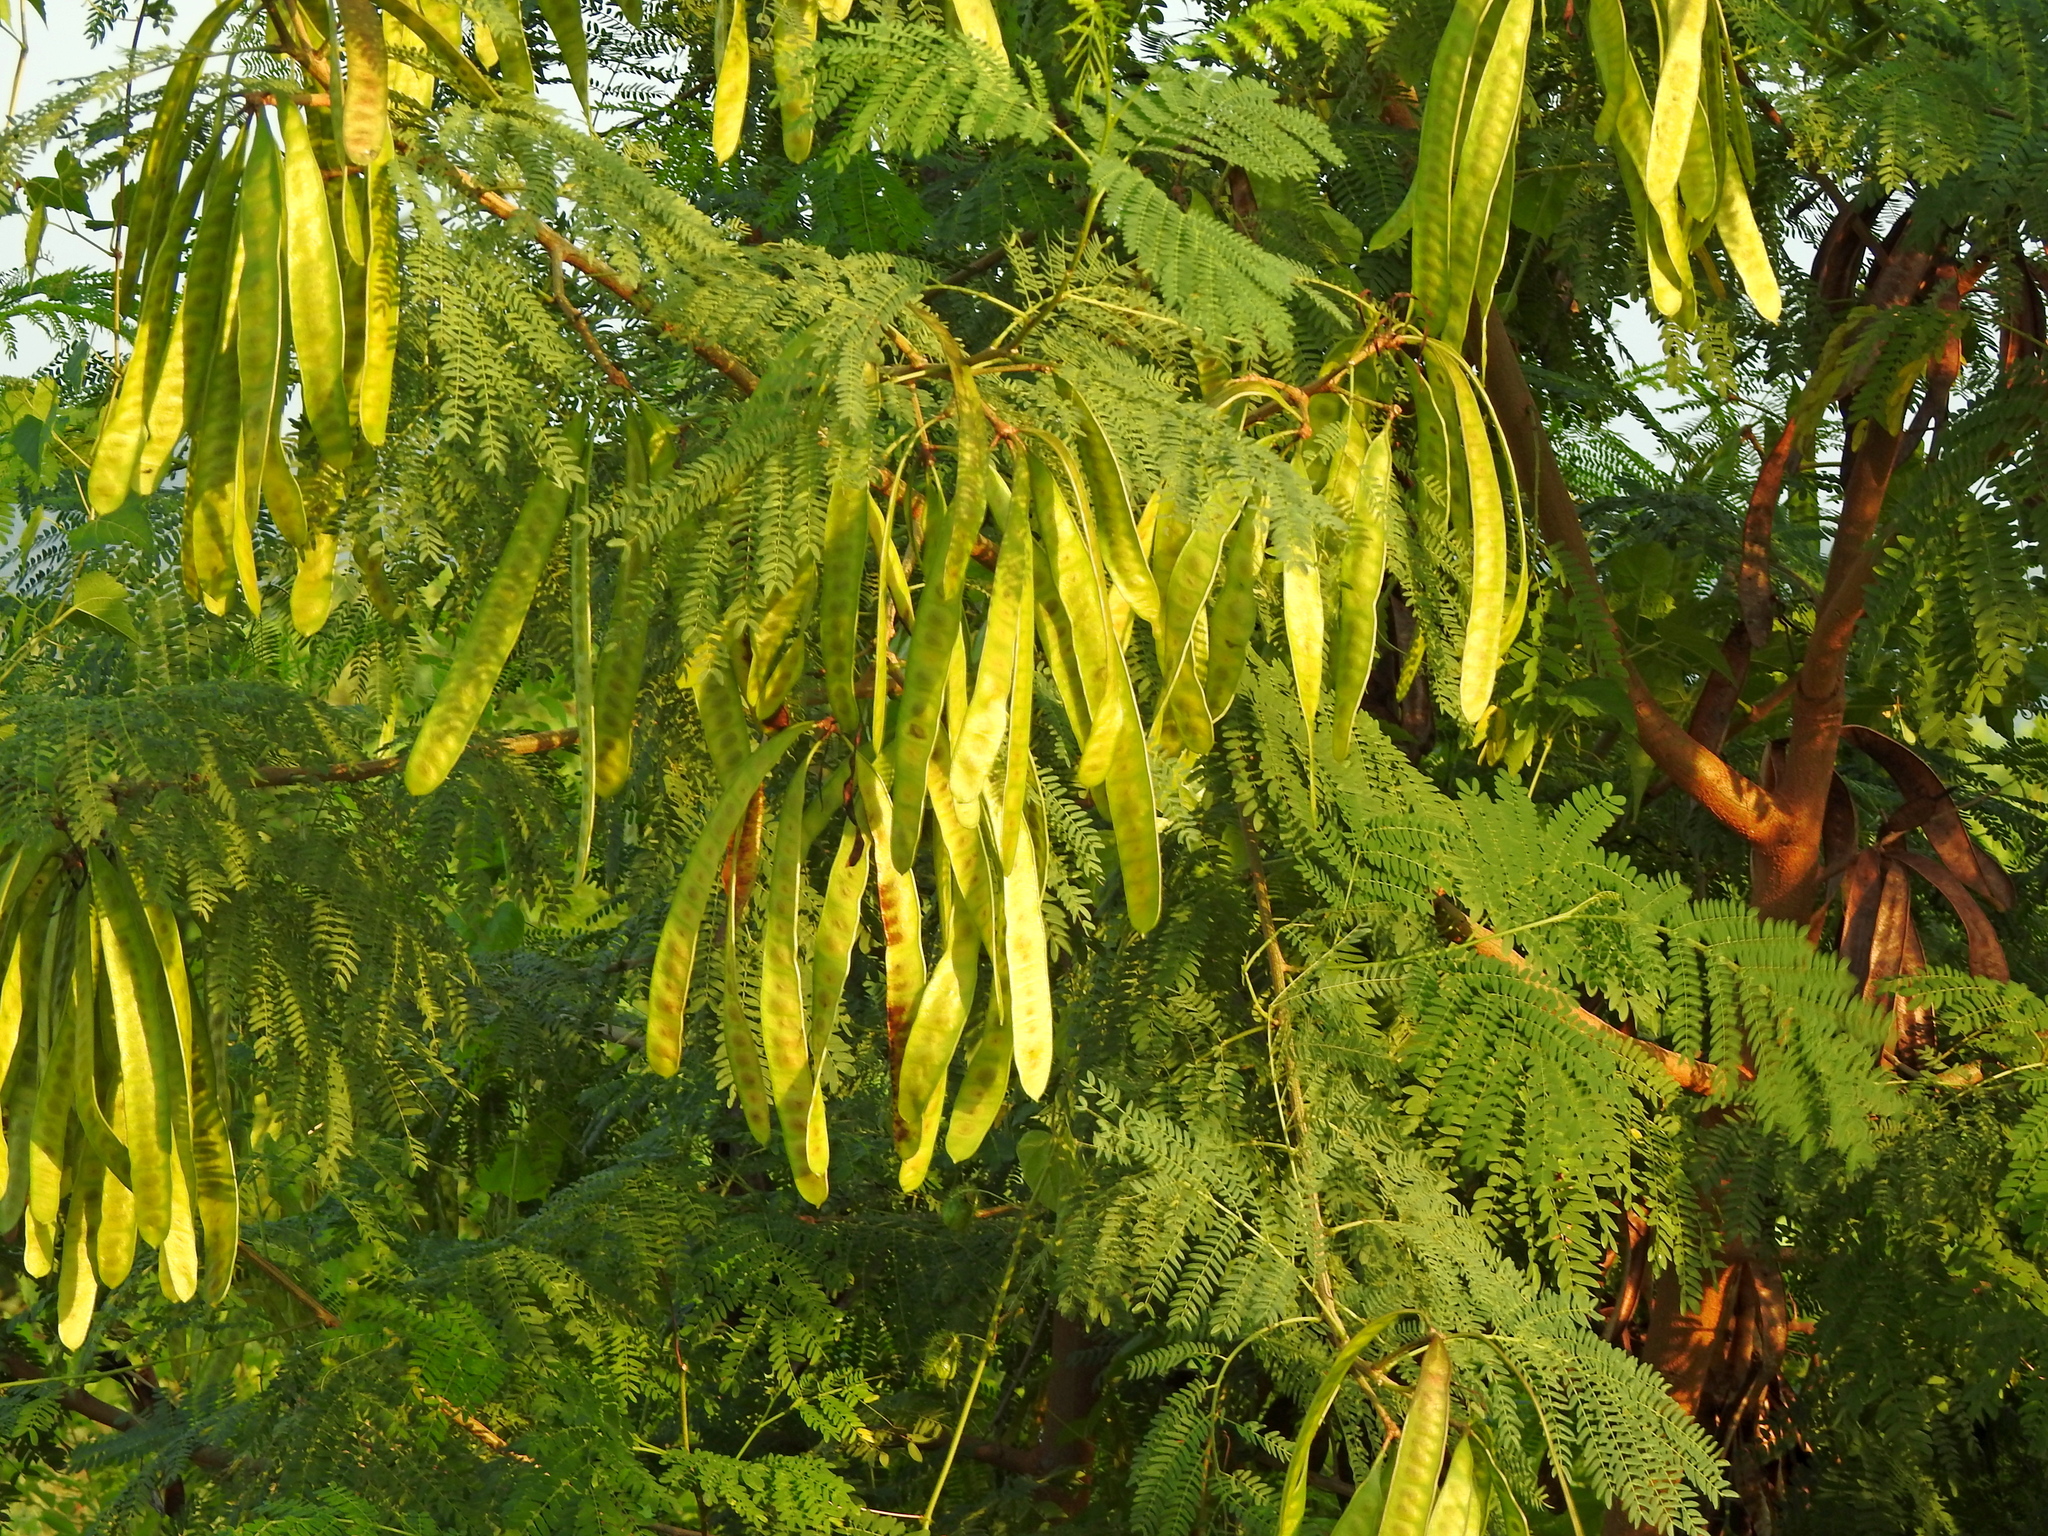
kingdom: Plantae
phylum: Tracheophyta
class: Magnoliopsida
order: Fabales
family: Fabaceae
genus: Leucaena
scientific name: Leucaena leucocephala
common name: White leadtree
